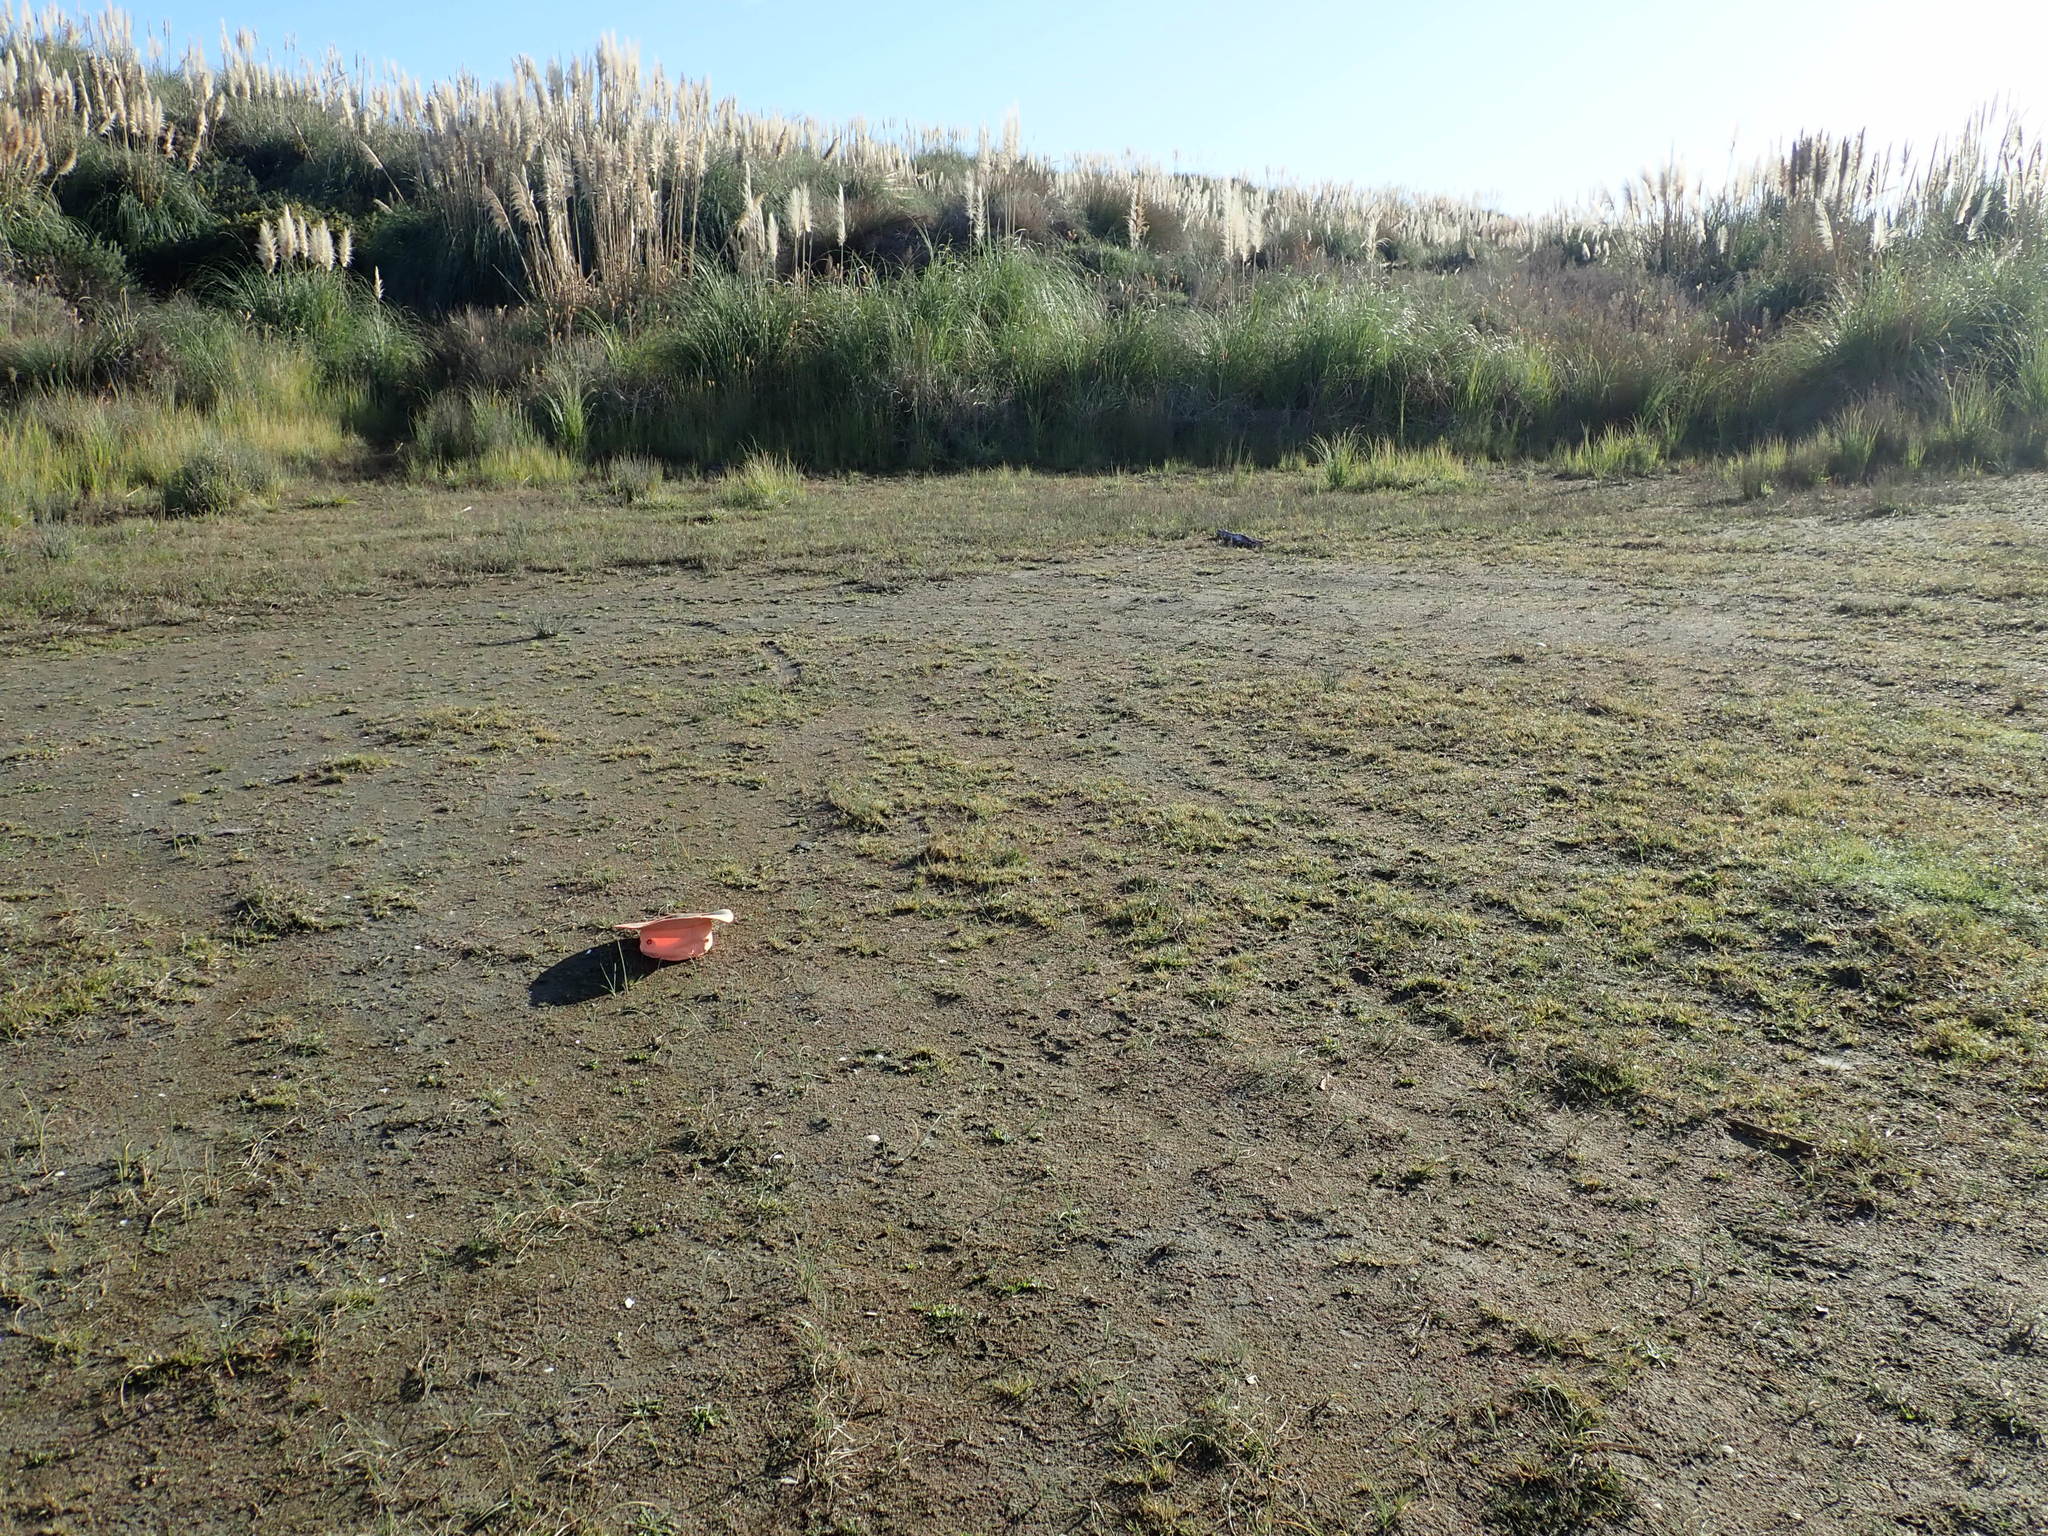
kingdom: Plantae
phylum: Tracheophyta
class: Magnoliopsida
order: Lamiales
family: Scrophulariaceae
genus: Limosella
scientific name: Limosella australis
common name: Welsh mudwort
